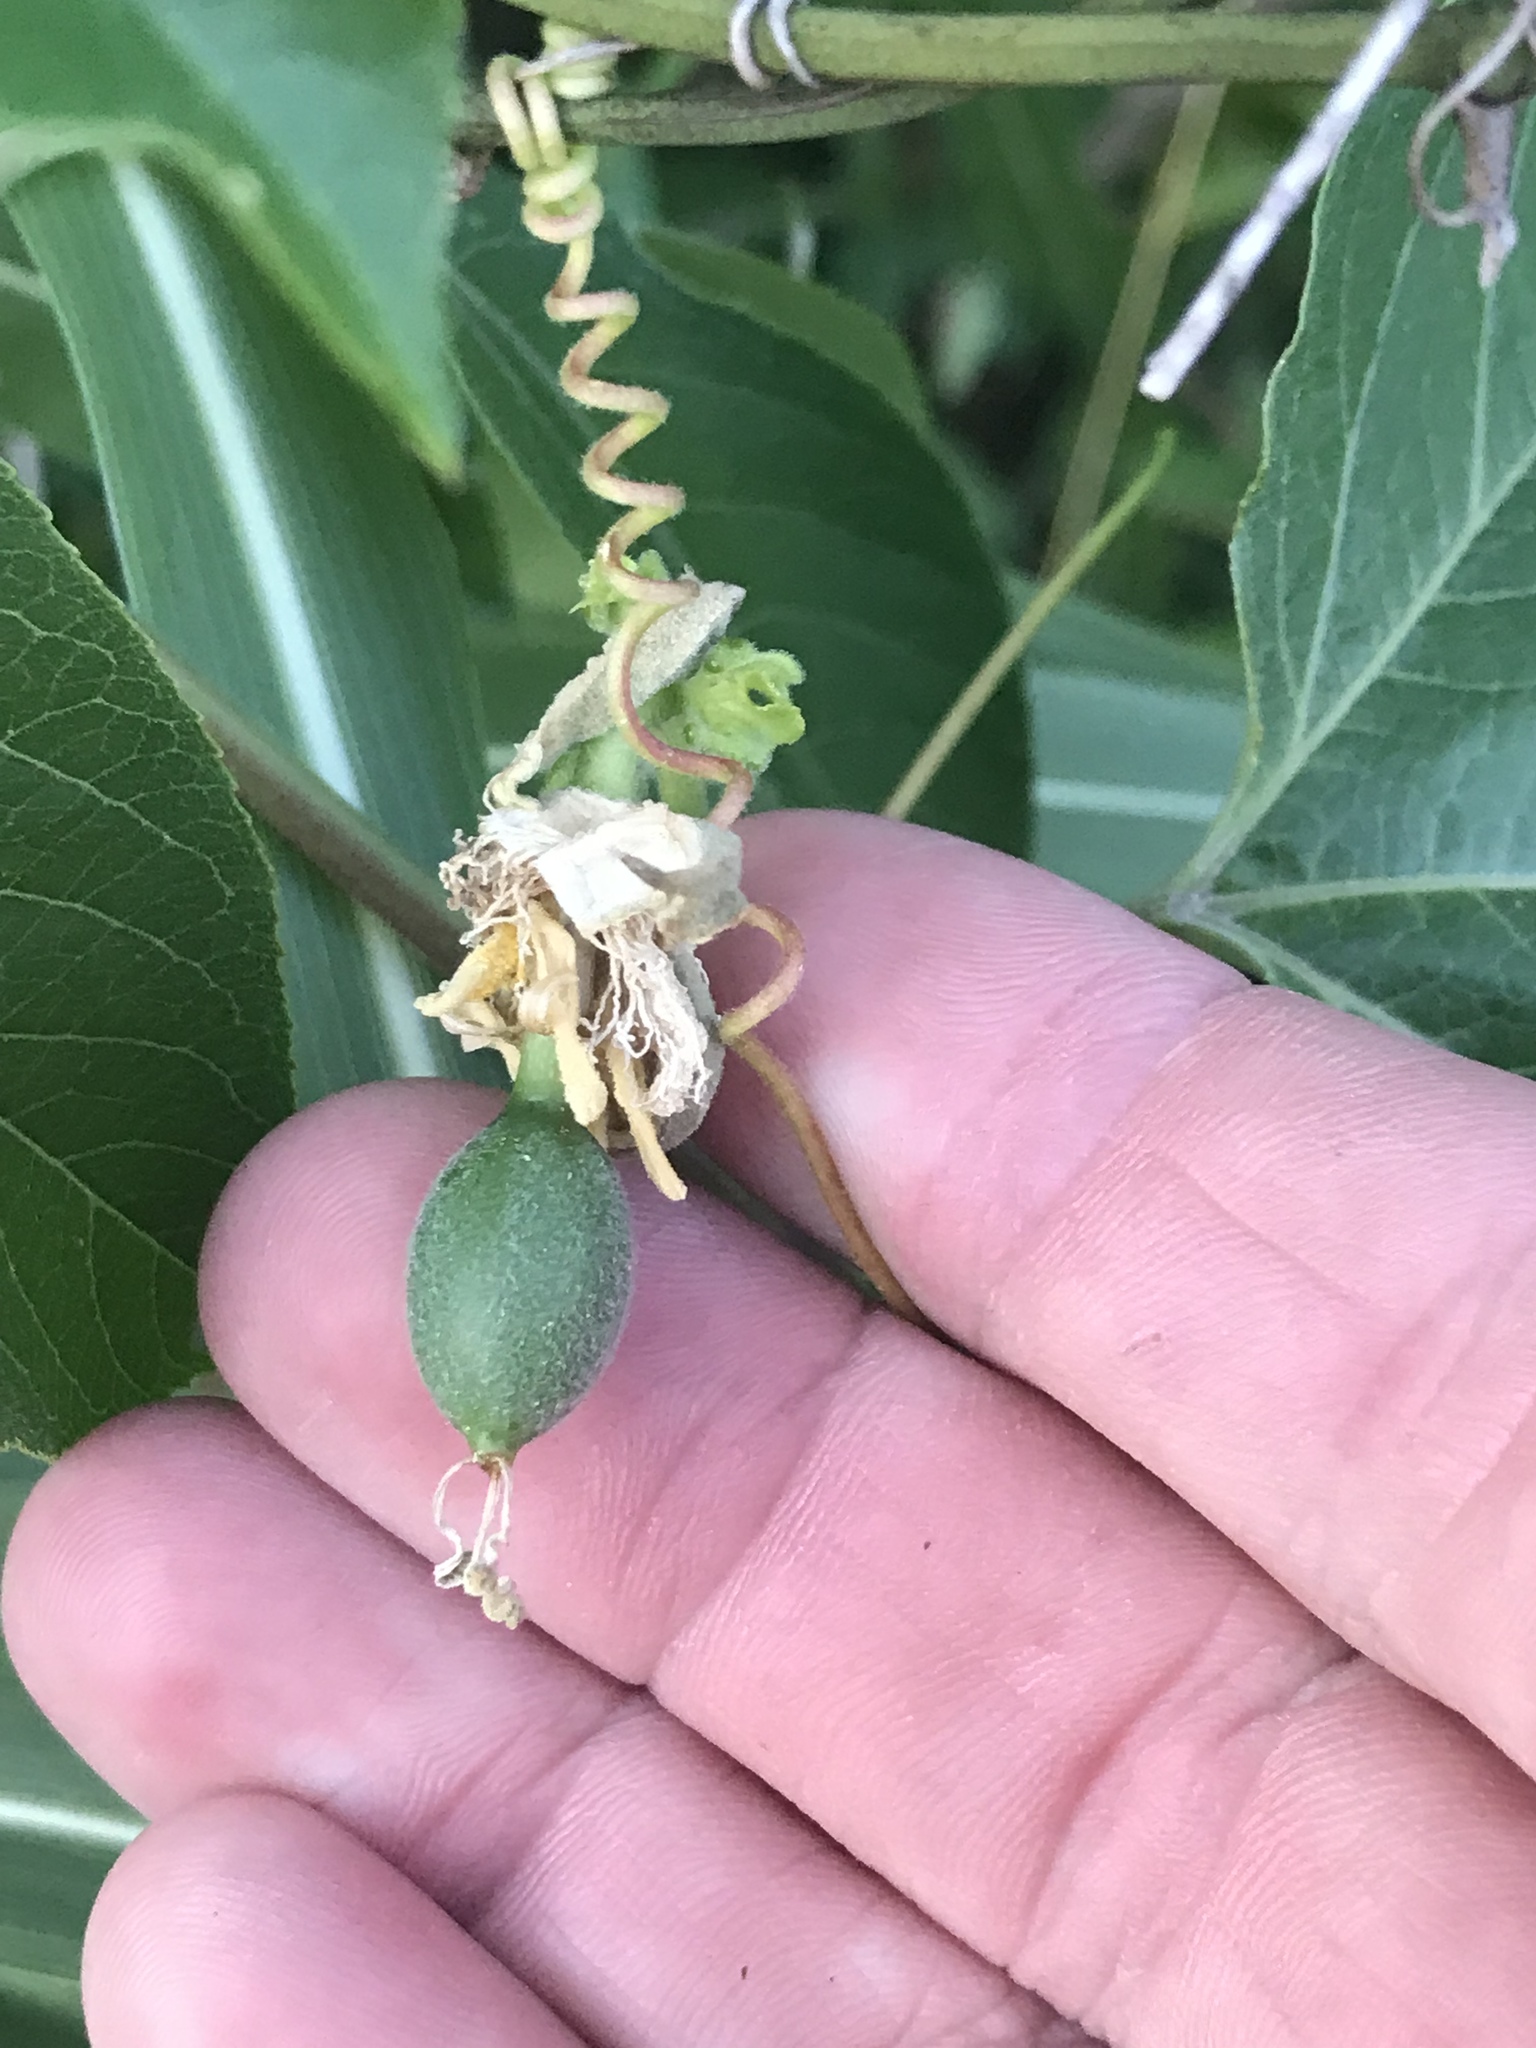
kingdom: Plantae
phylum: Tracheophyta
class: Magnoliopsida
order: Malpighiales
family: Passifloraceae
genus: Passiflora
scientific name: Passiflora incarnata
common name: Apricot-vine
